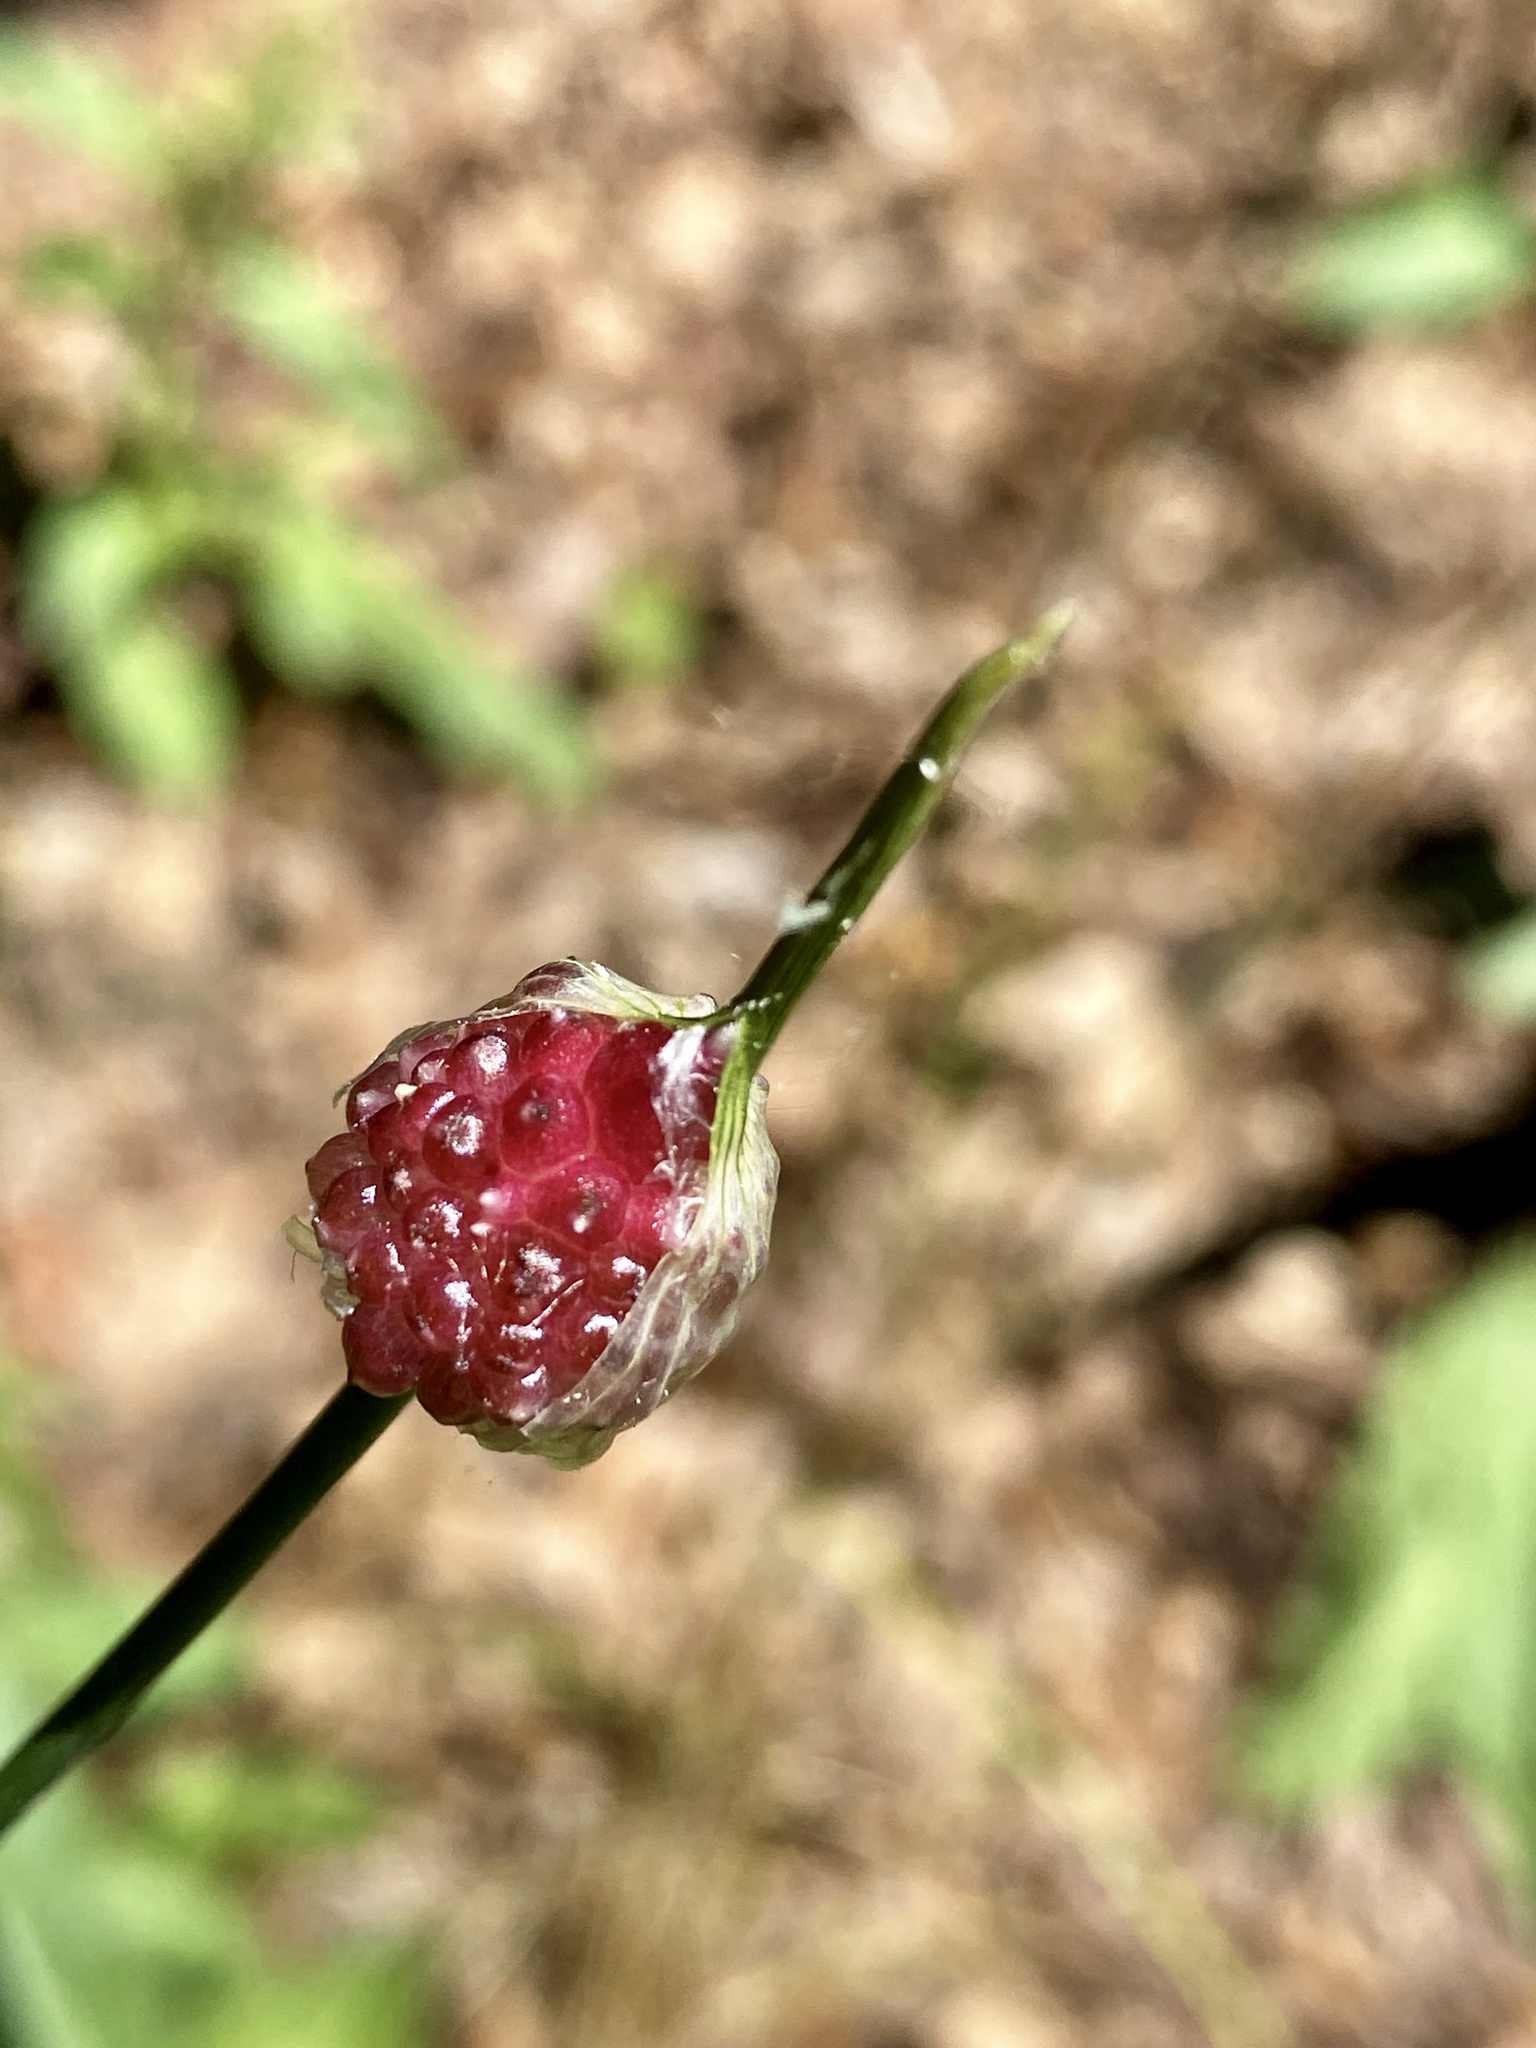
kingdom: Plantae
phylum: Tracheophyta
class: Liliopsida
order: Asparagales
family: Amaryllidaceae
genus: Allium
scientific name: Allium vineale
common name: Crow garlic
